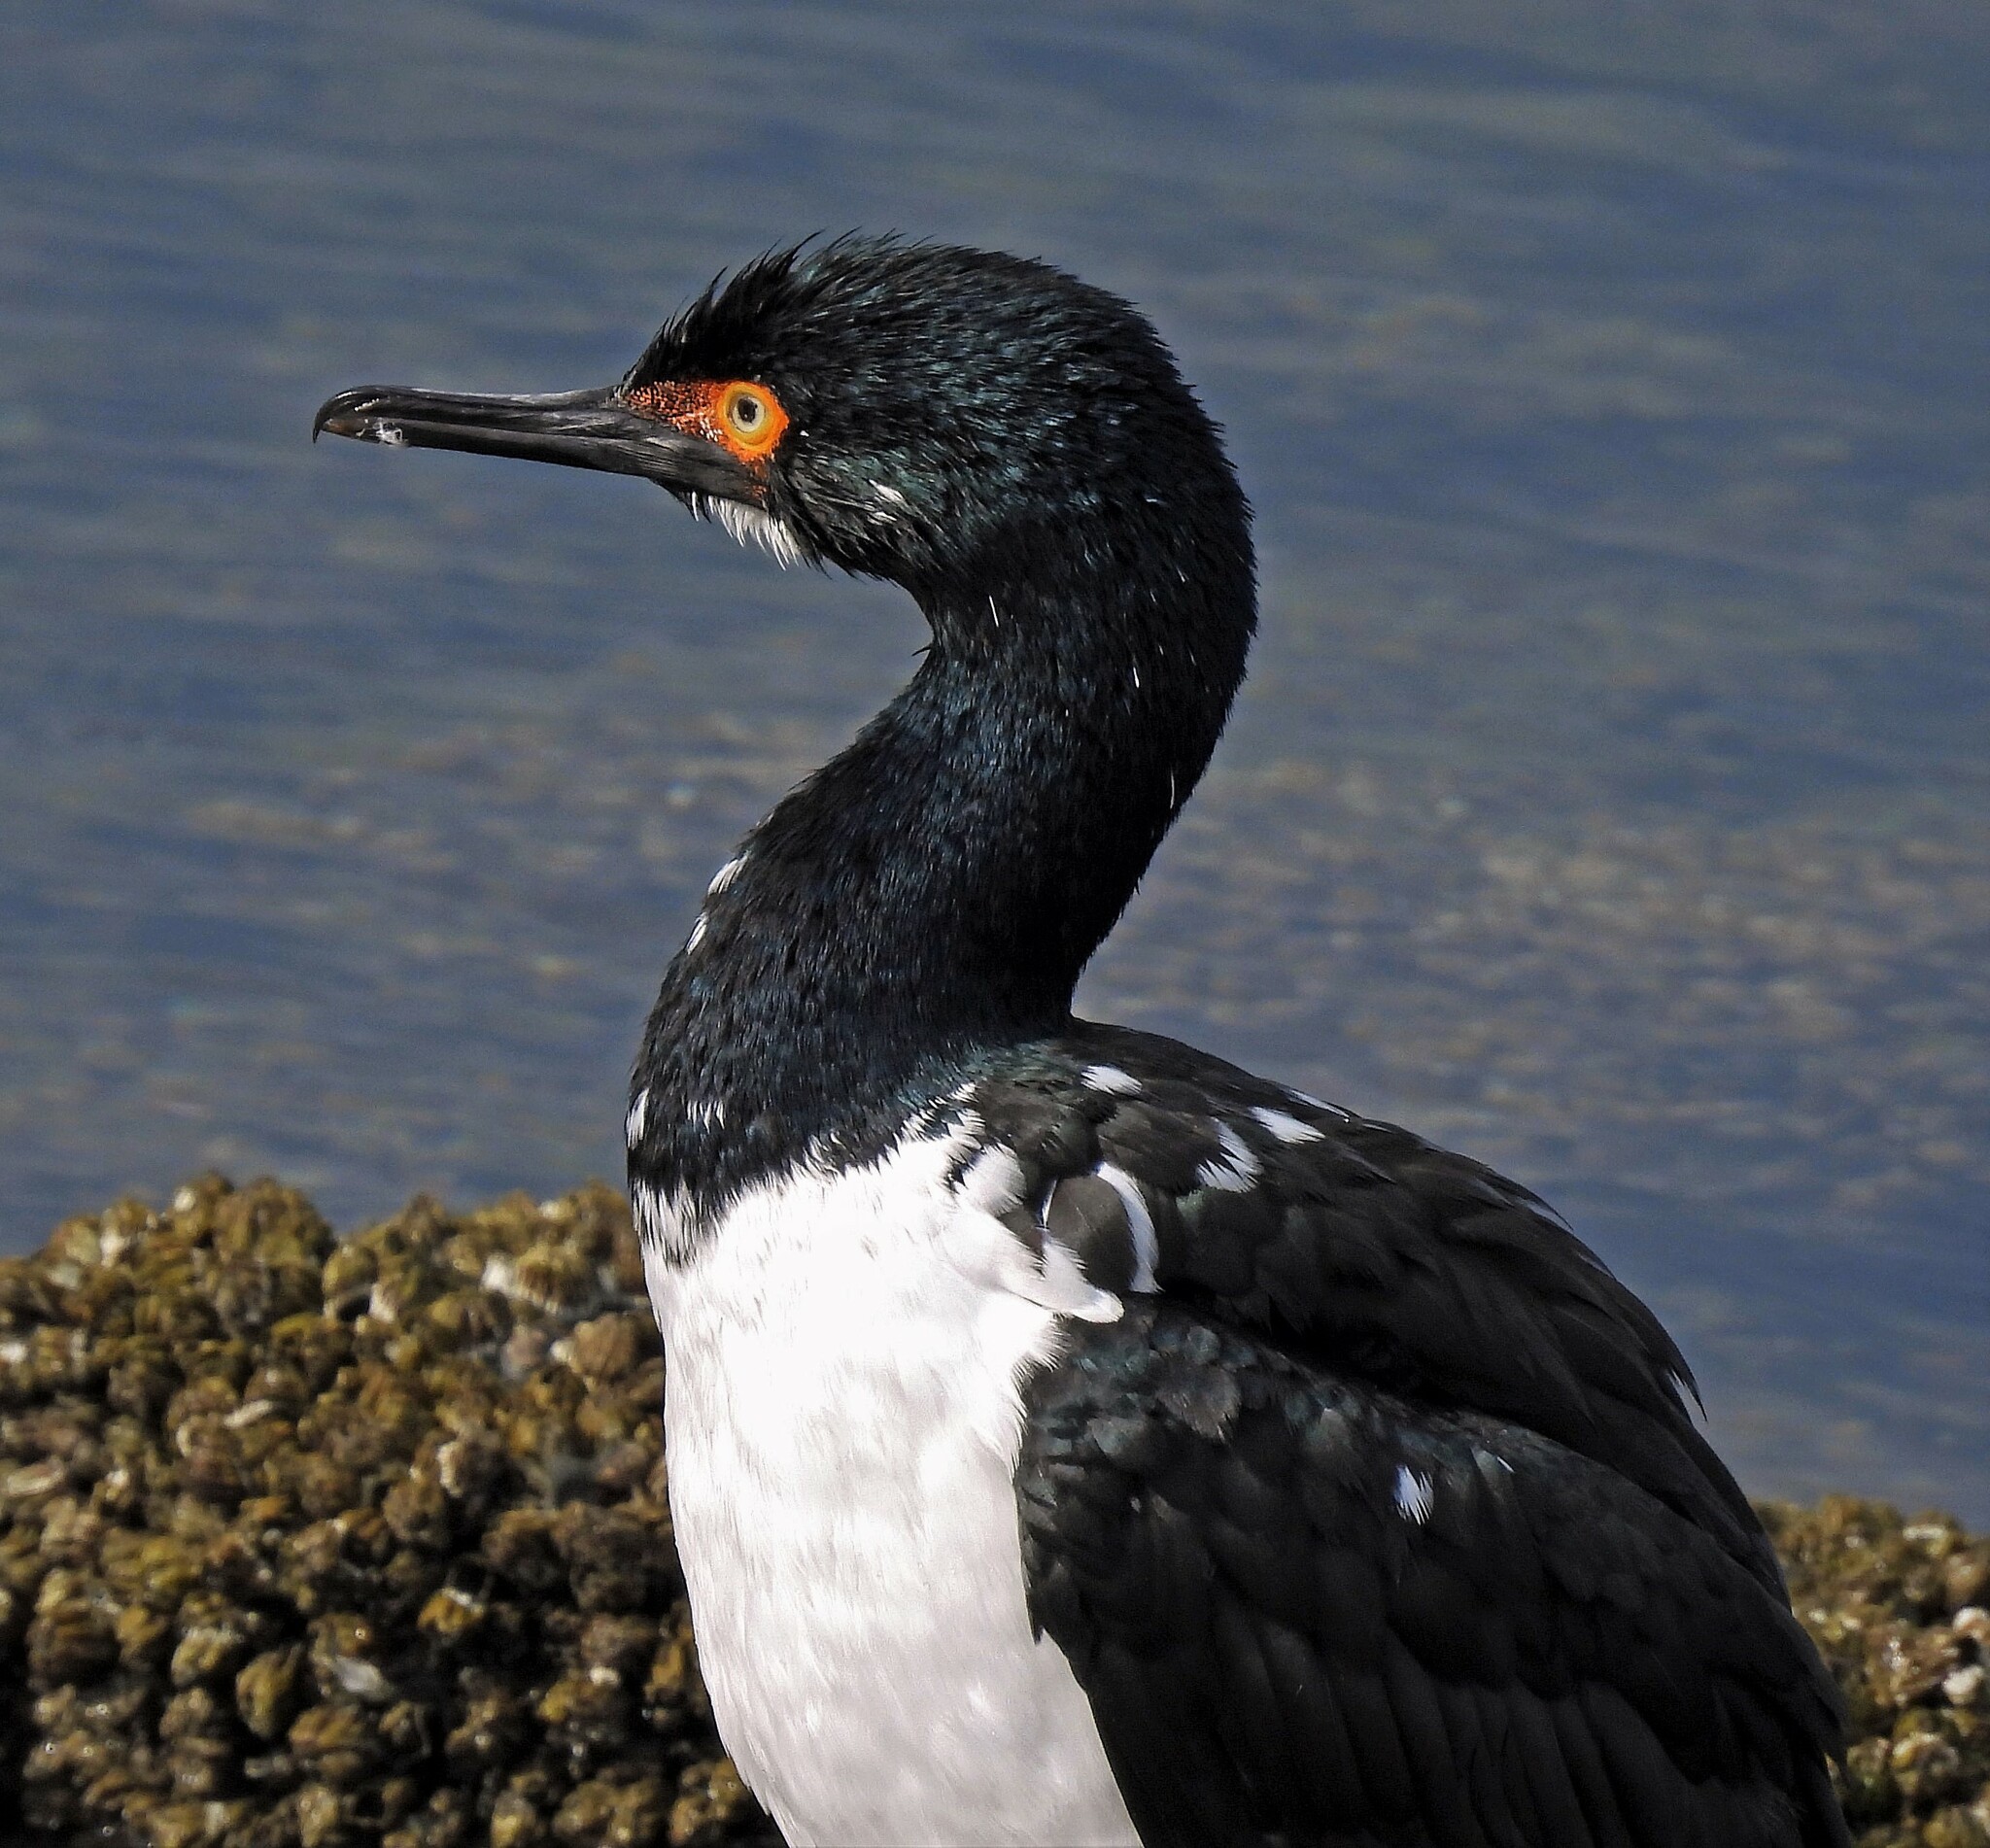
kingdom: Animalia
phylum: Chordata
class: Aves
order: Suliformes
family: Phalacrocoracidae
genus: Phalacrocorax
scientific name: Phalacrocorax magellanicus
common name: Rock shag
